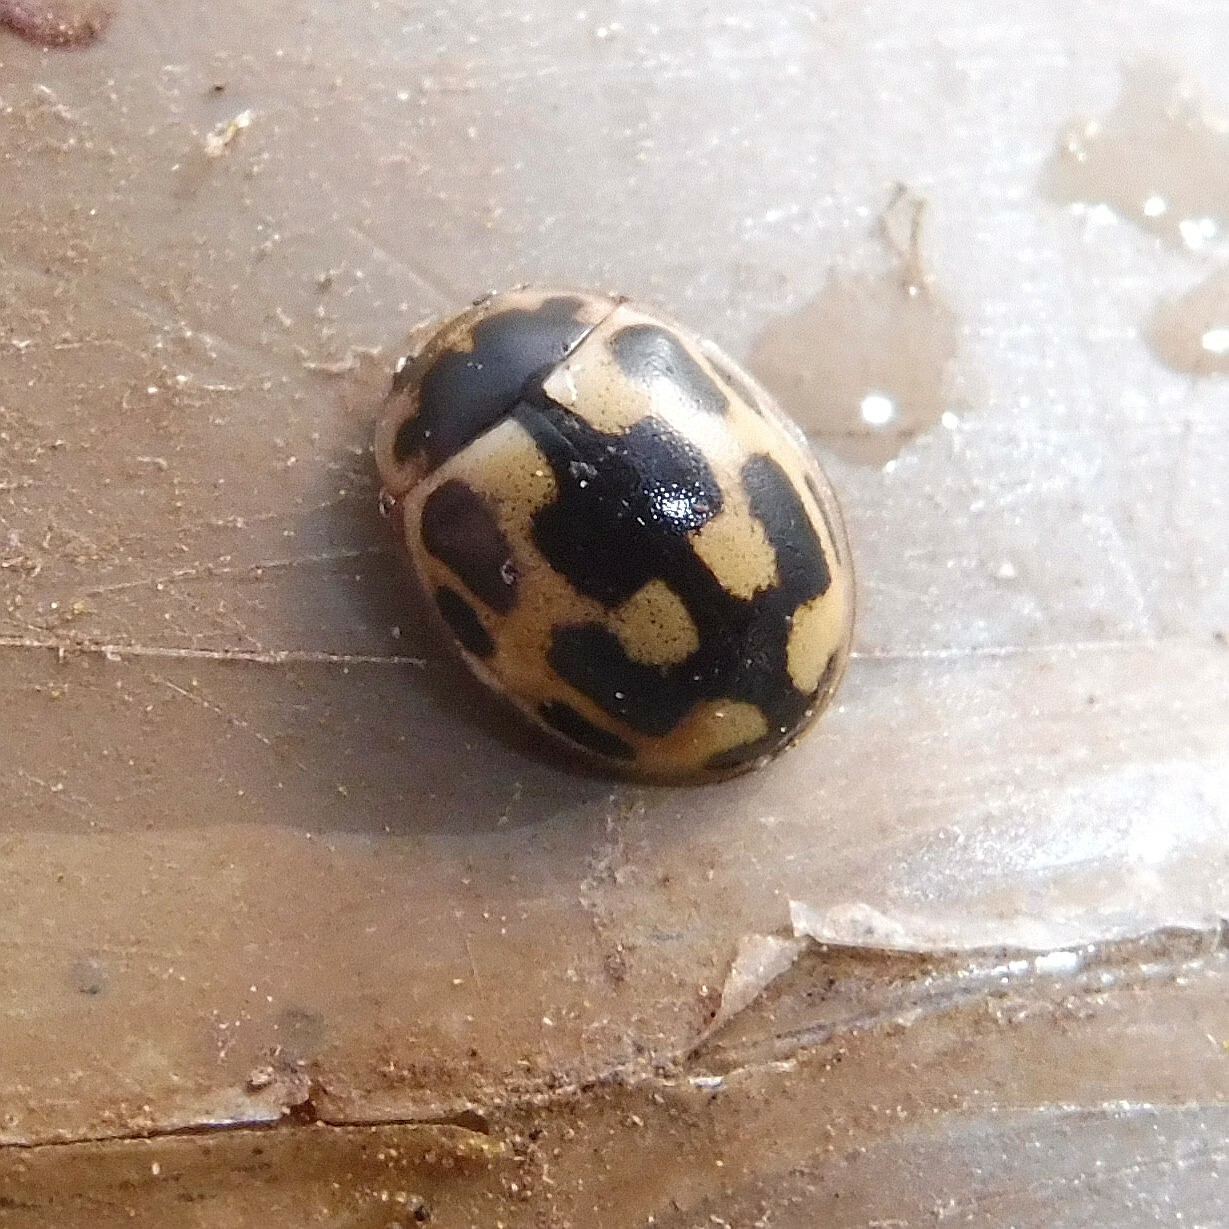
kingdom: Animalia
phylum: Arthropoda
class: Insecta
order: Coleoptera
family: Coccinellidae
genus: Propylaea
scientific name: Propylaea quatuordecimpunctata
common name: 14-spotted ladybird beetle
